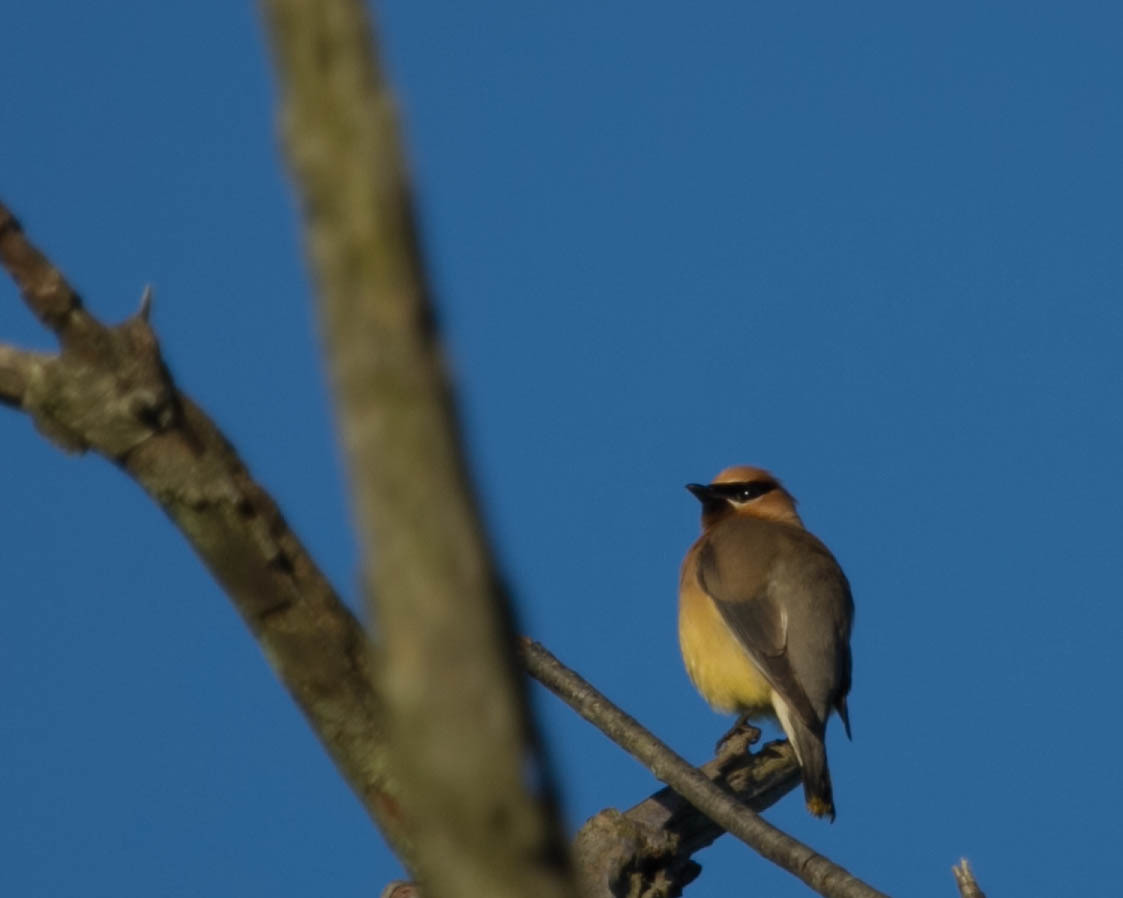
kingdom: Animalia
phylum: Chordata
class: Aves
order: Passeriformes
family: Bombycillidae
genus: Bombycilla
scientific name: Bombycilla cedrorum
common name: Cedar waxwing
